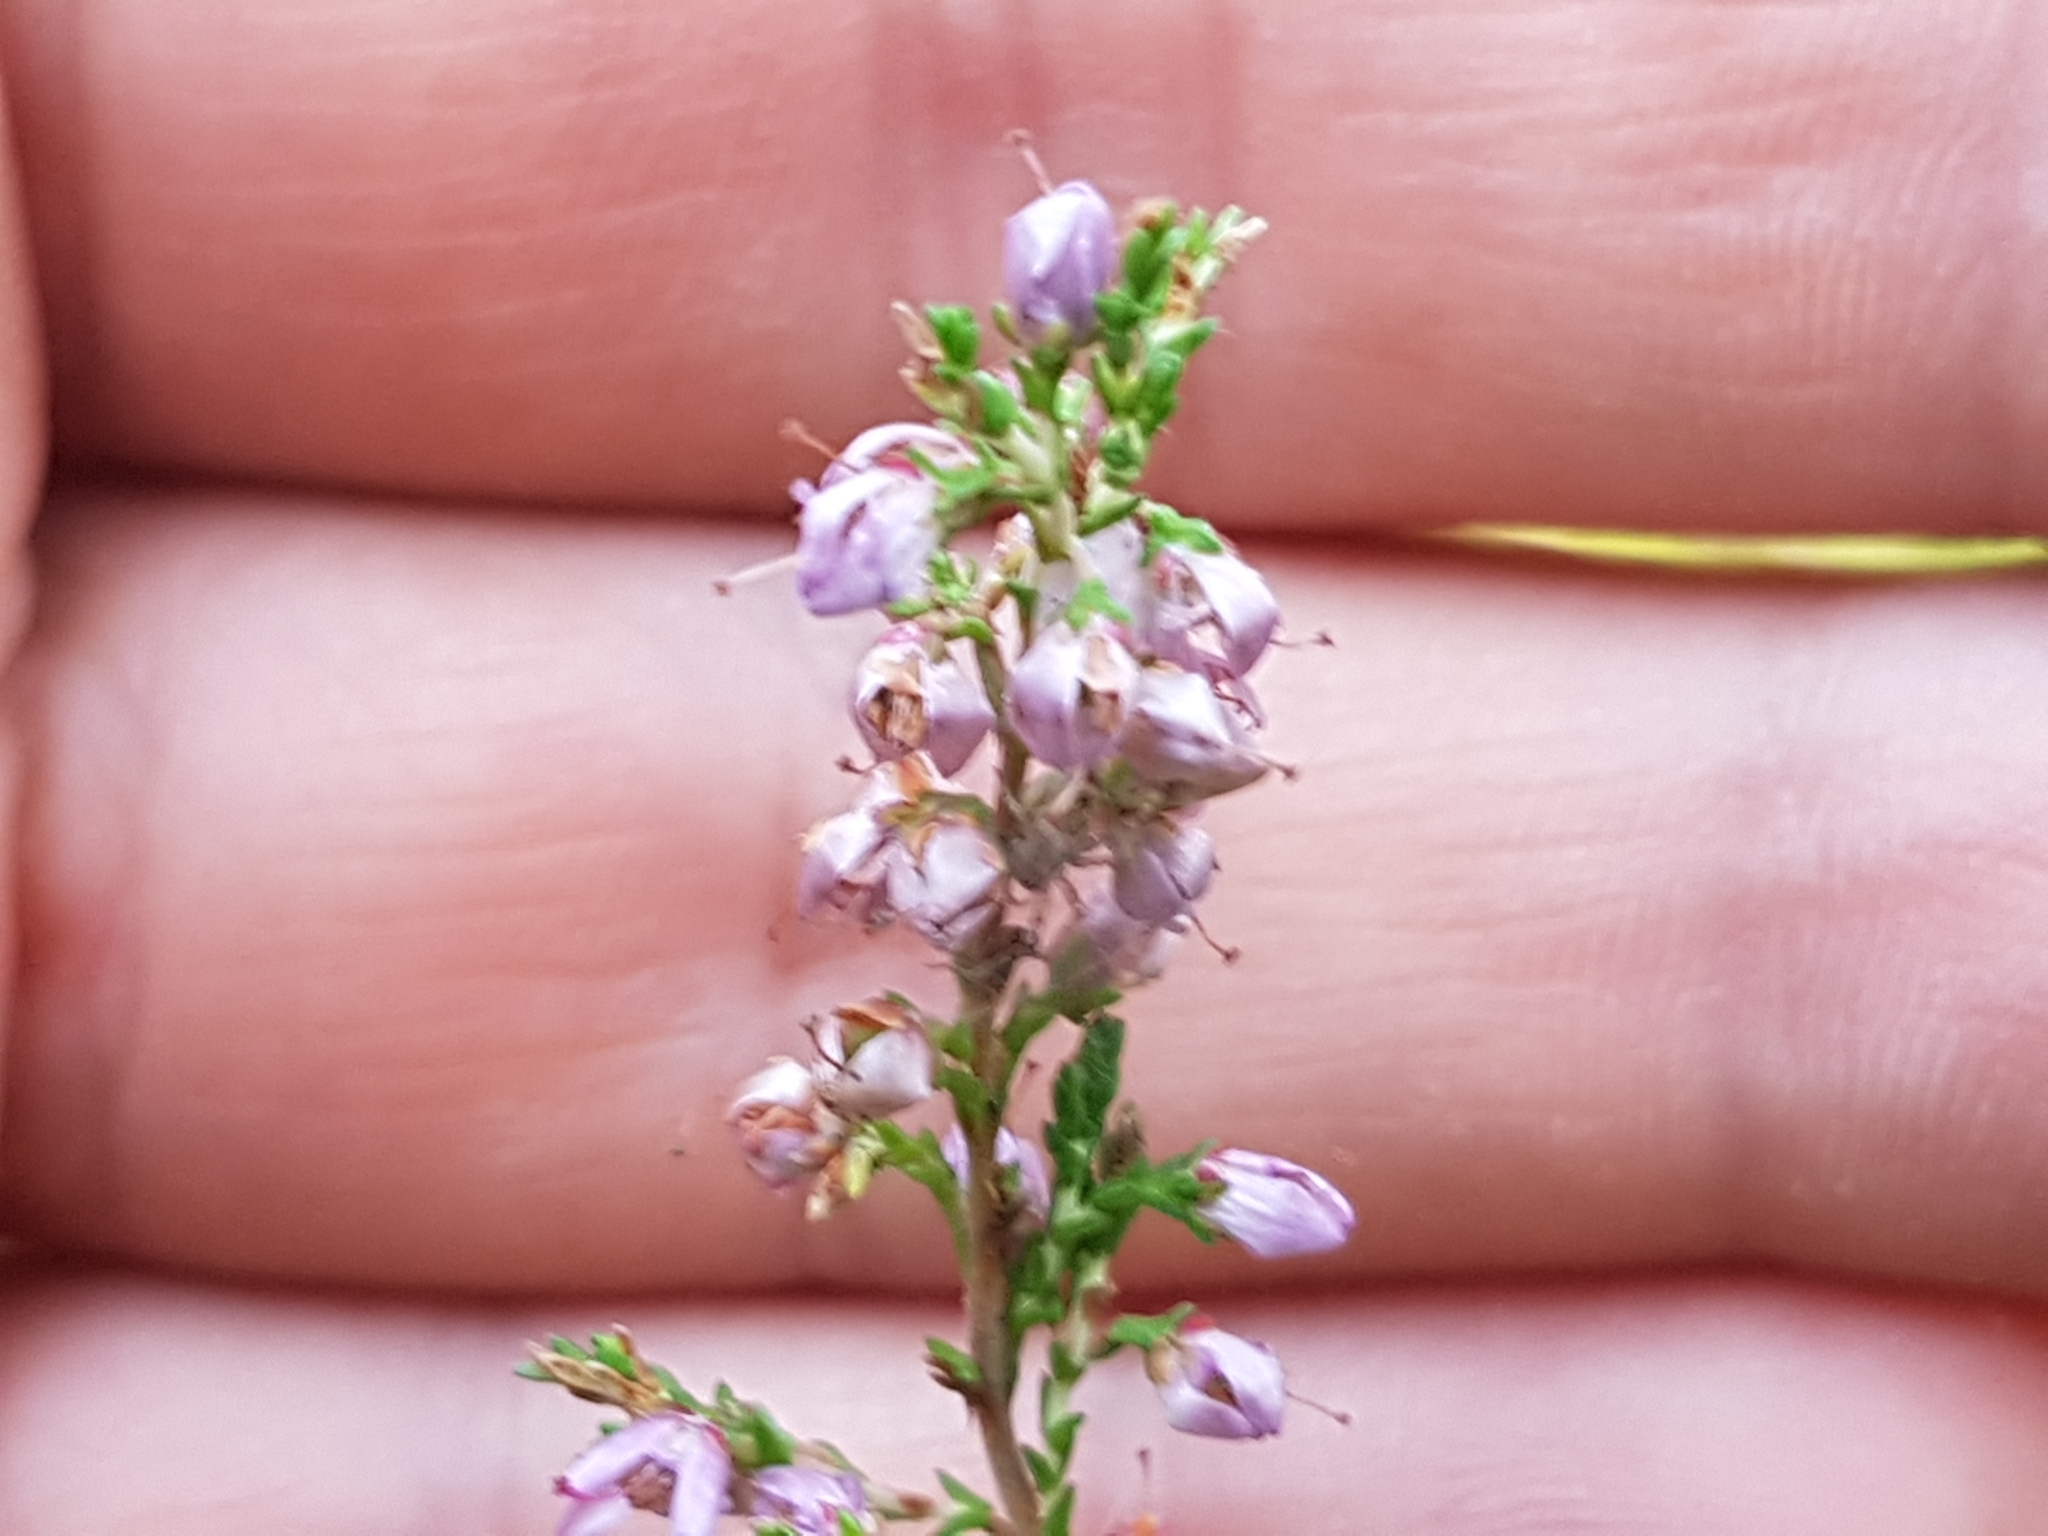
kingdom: Plantae
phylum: Tracheophyta
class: Magnoliopsida
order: Ericales
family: Ericaceae
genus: Calluna
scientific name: Calluna vulgaris
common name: Heather
